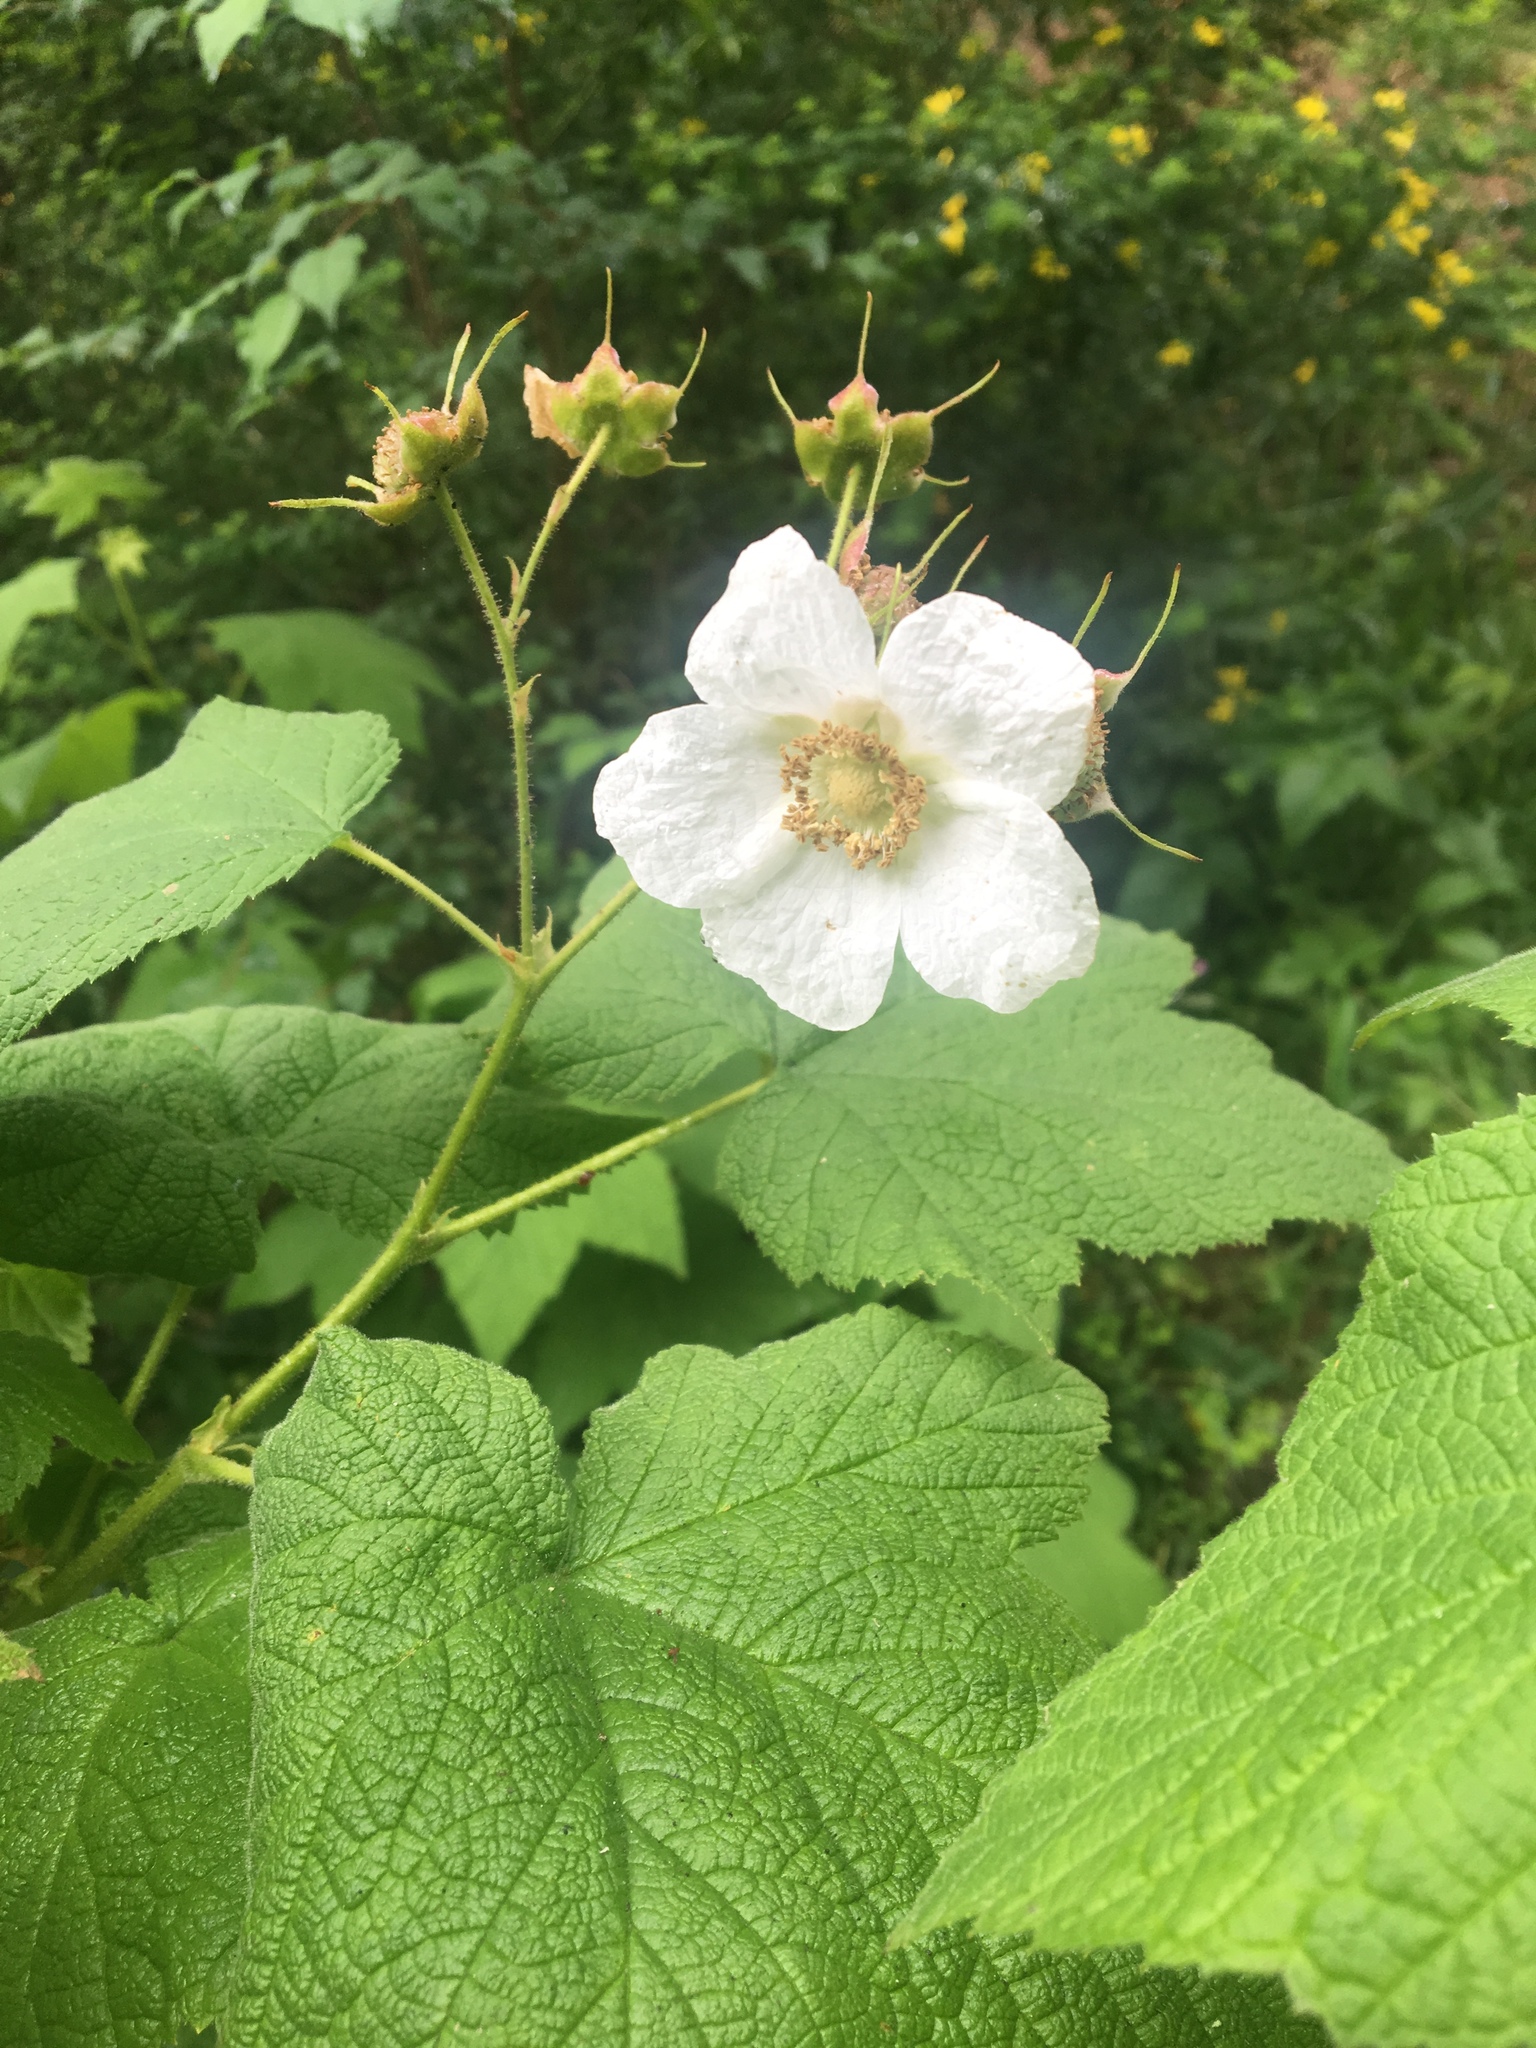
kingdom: Plantae
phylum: Tracheophyta
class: Magnoliopsida
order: Rosales
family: Rosaceae
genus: Rubus
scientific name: Rubus parviflorus
